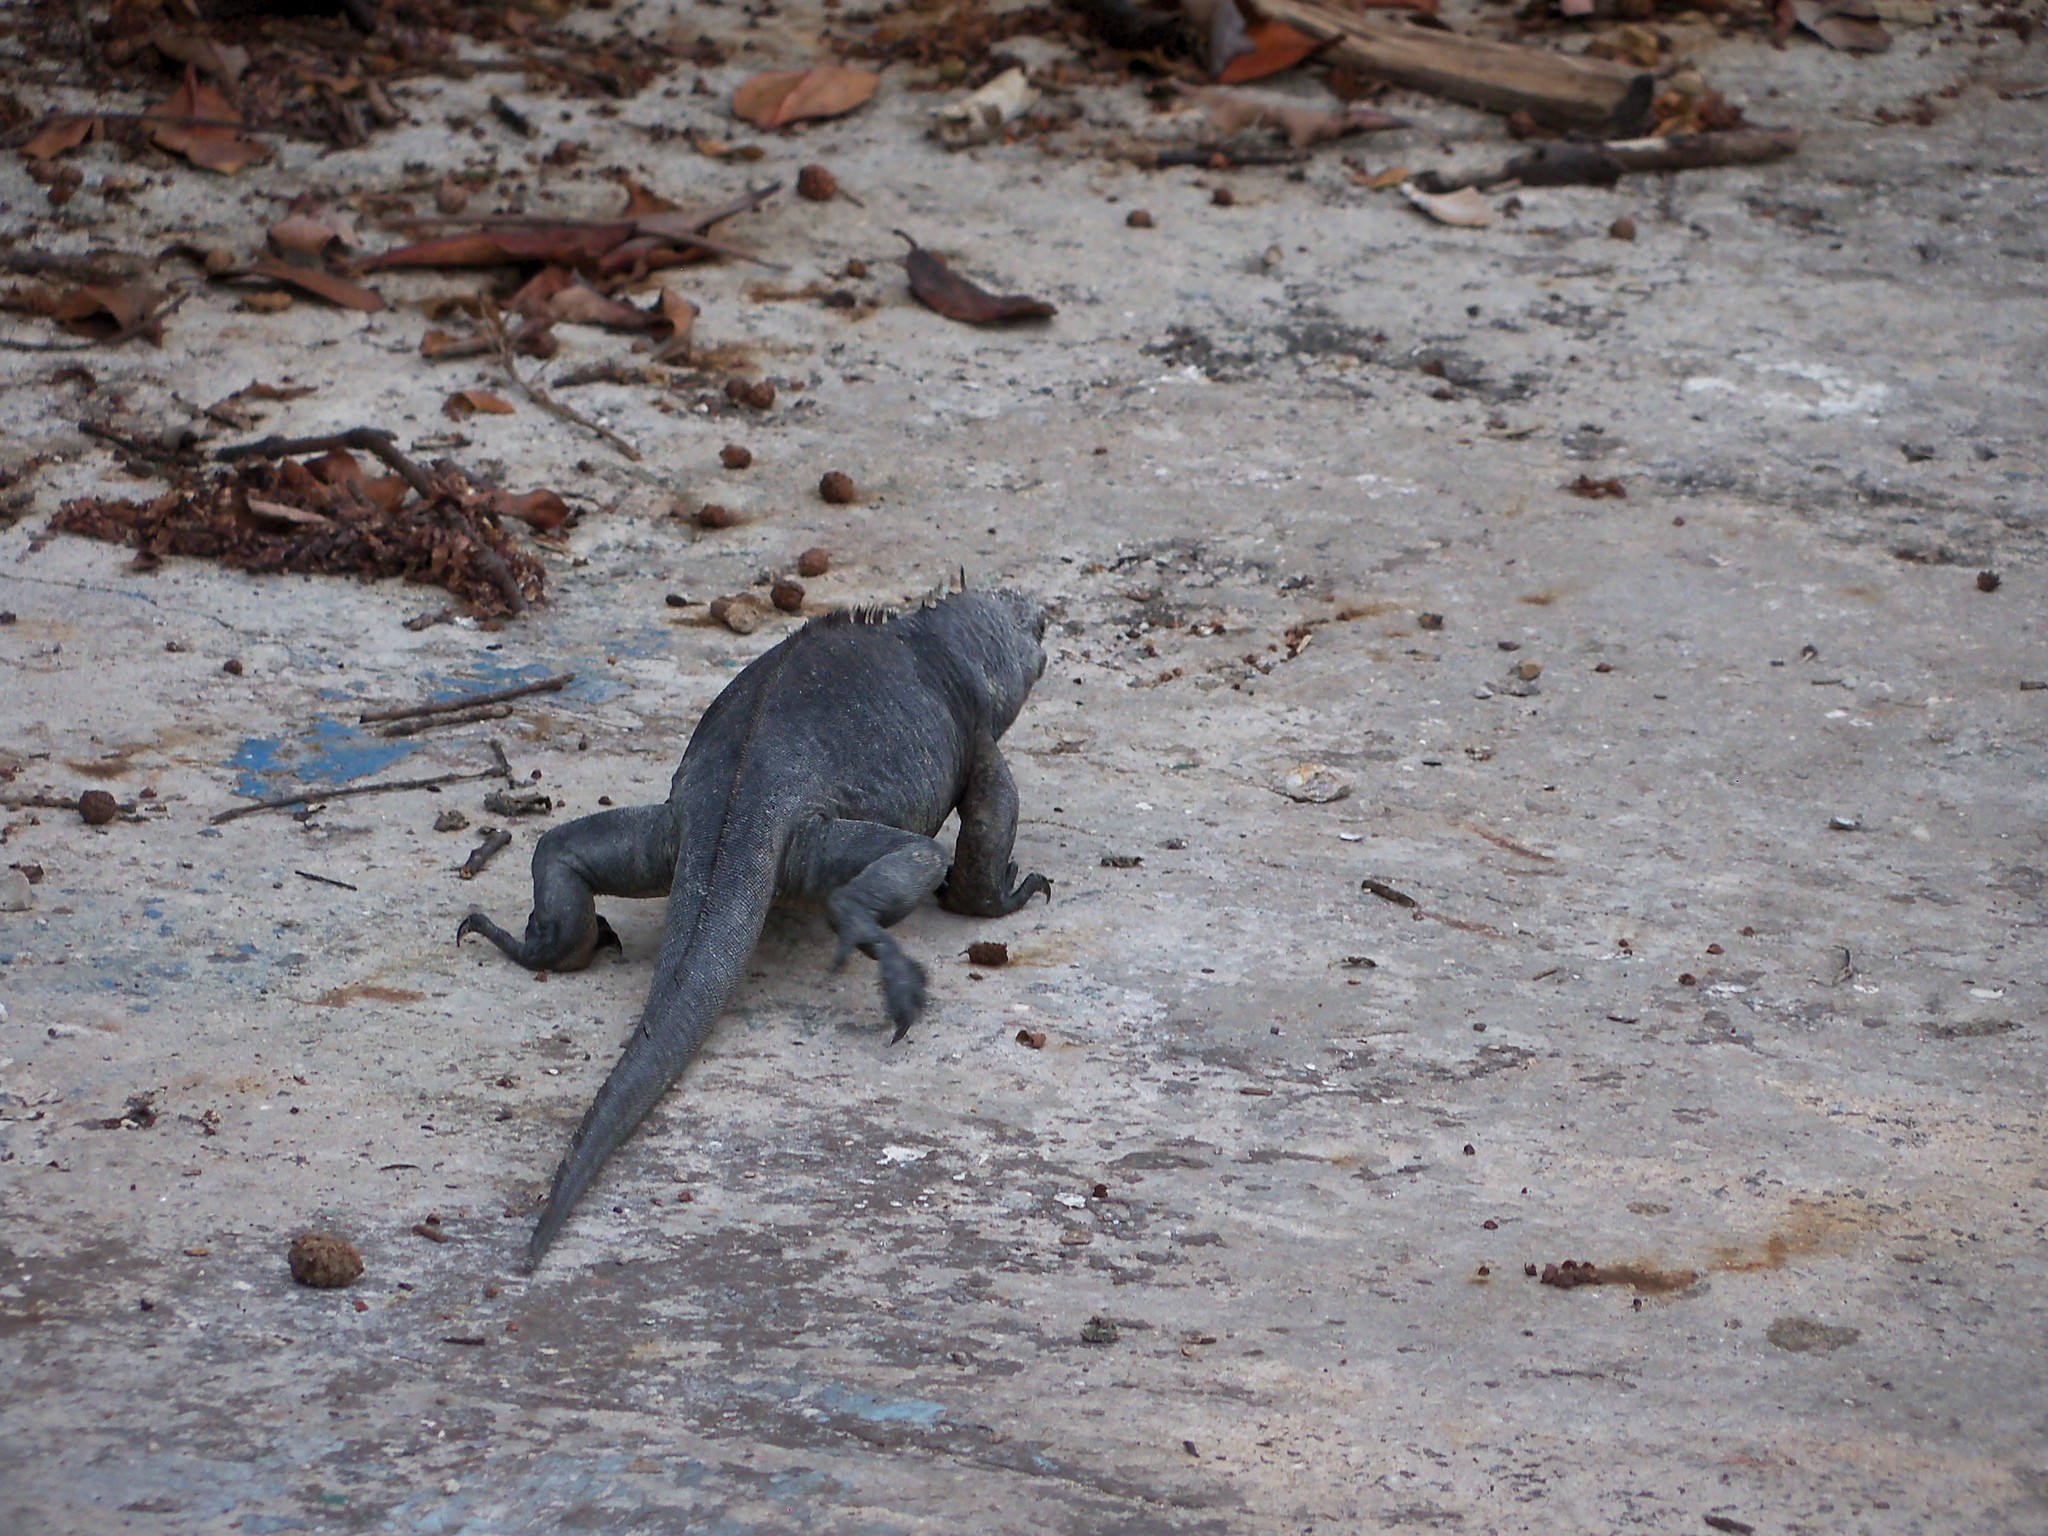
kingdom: Animalia
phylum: Chordata
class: Squamata
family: Iguanidae
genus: Amblyrhynchus
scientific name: Amblyrhynchus cristatus
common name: Marine iguana
